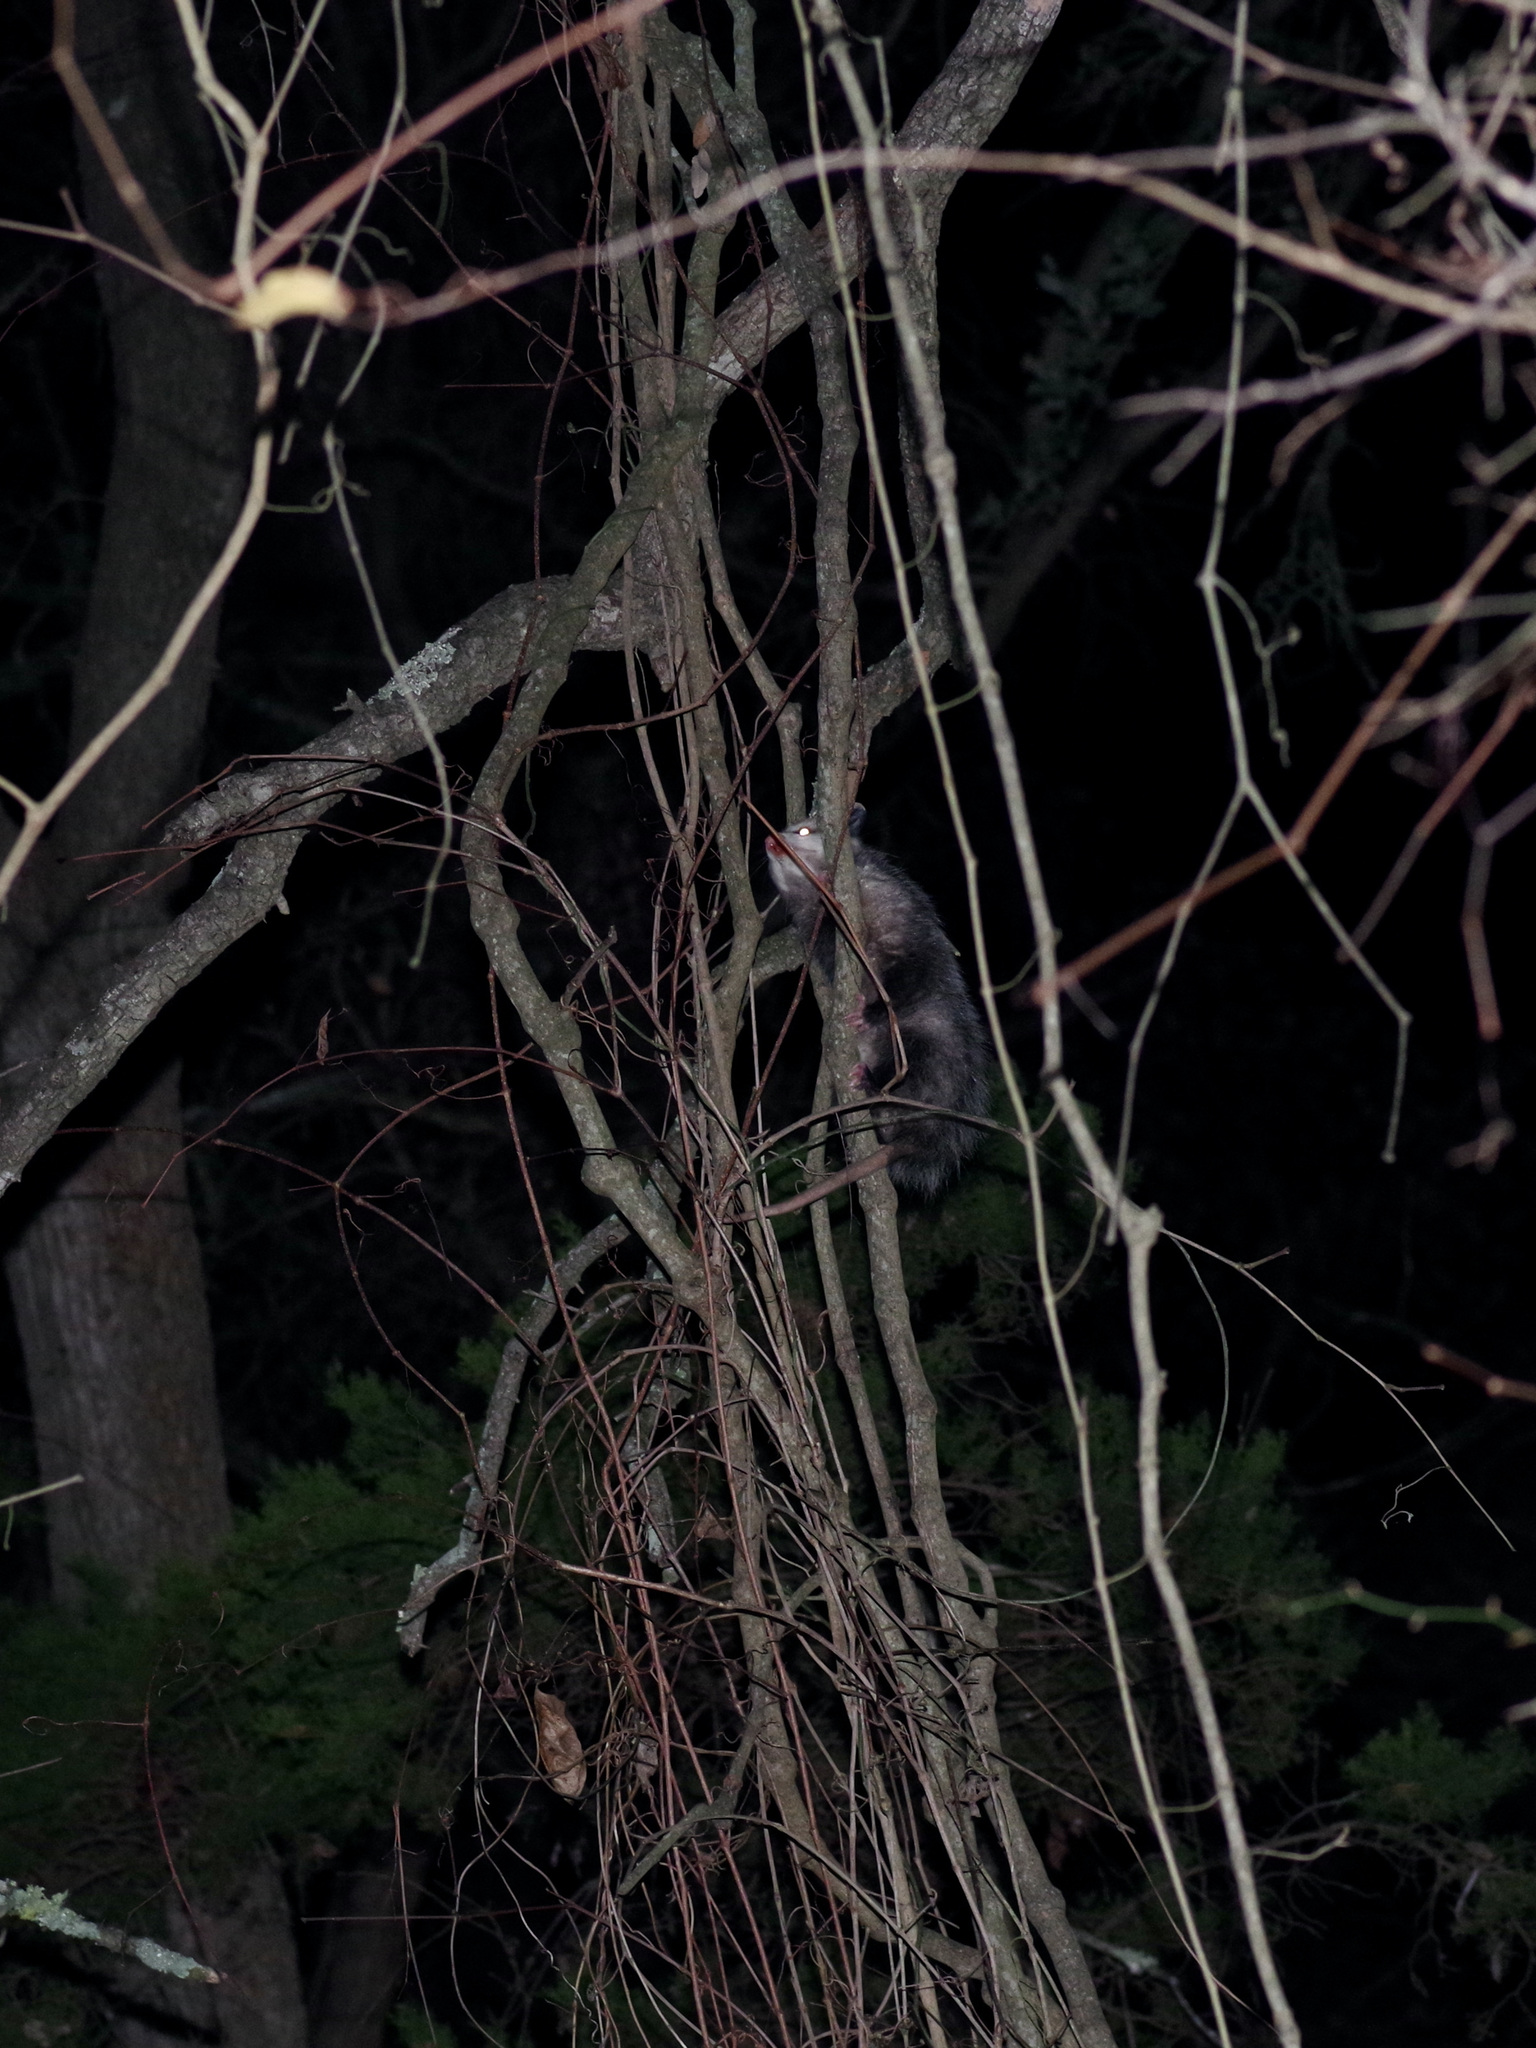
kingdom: Animalia
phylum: Chordata
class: Mammalia
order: Didelphimorphia
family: Didelphidae
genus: Didelphis
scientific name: Didelphis virginiana
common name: Virginia opossum
